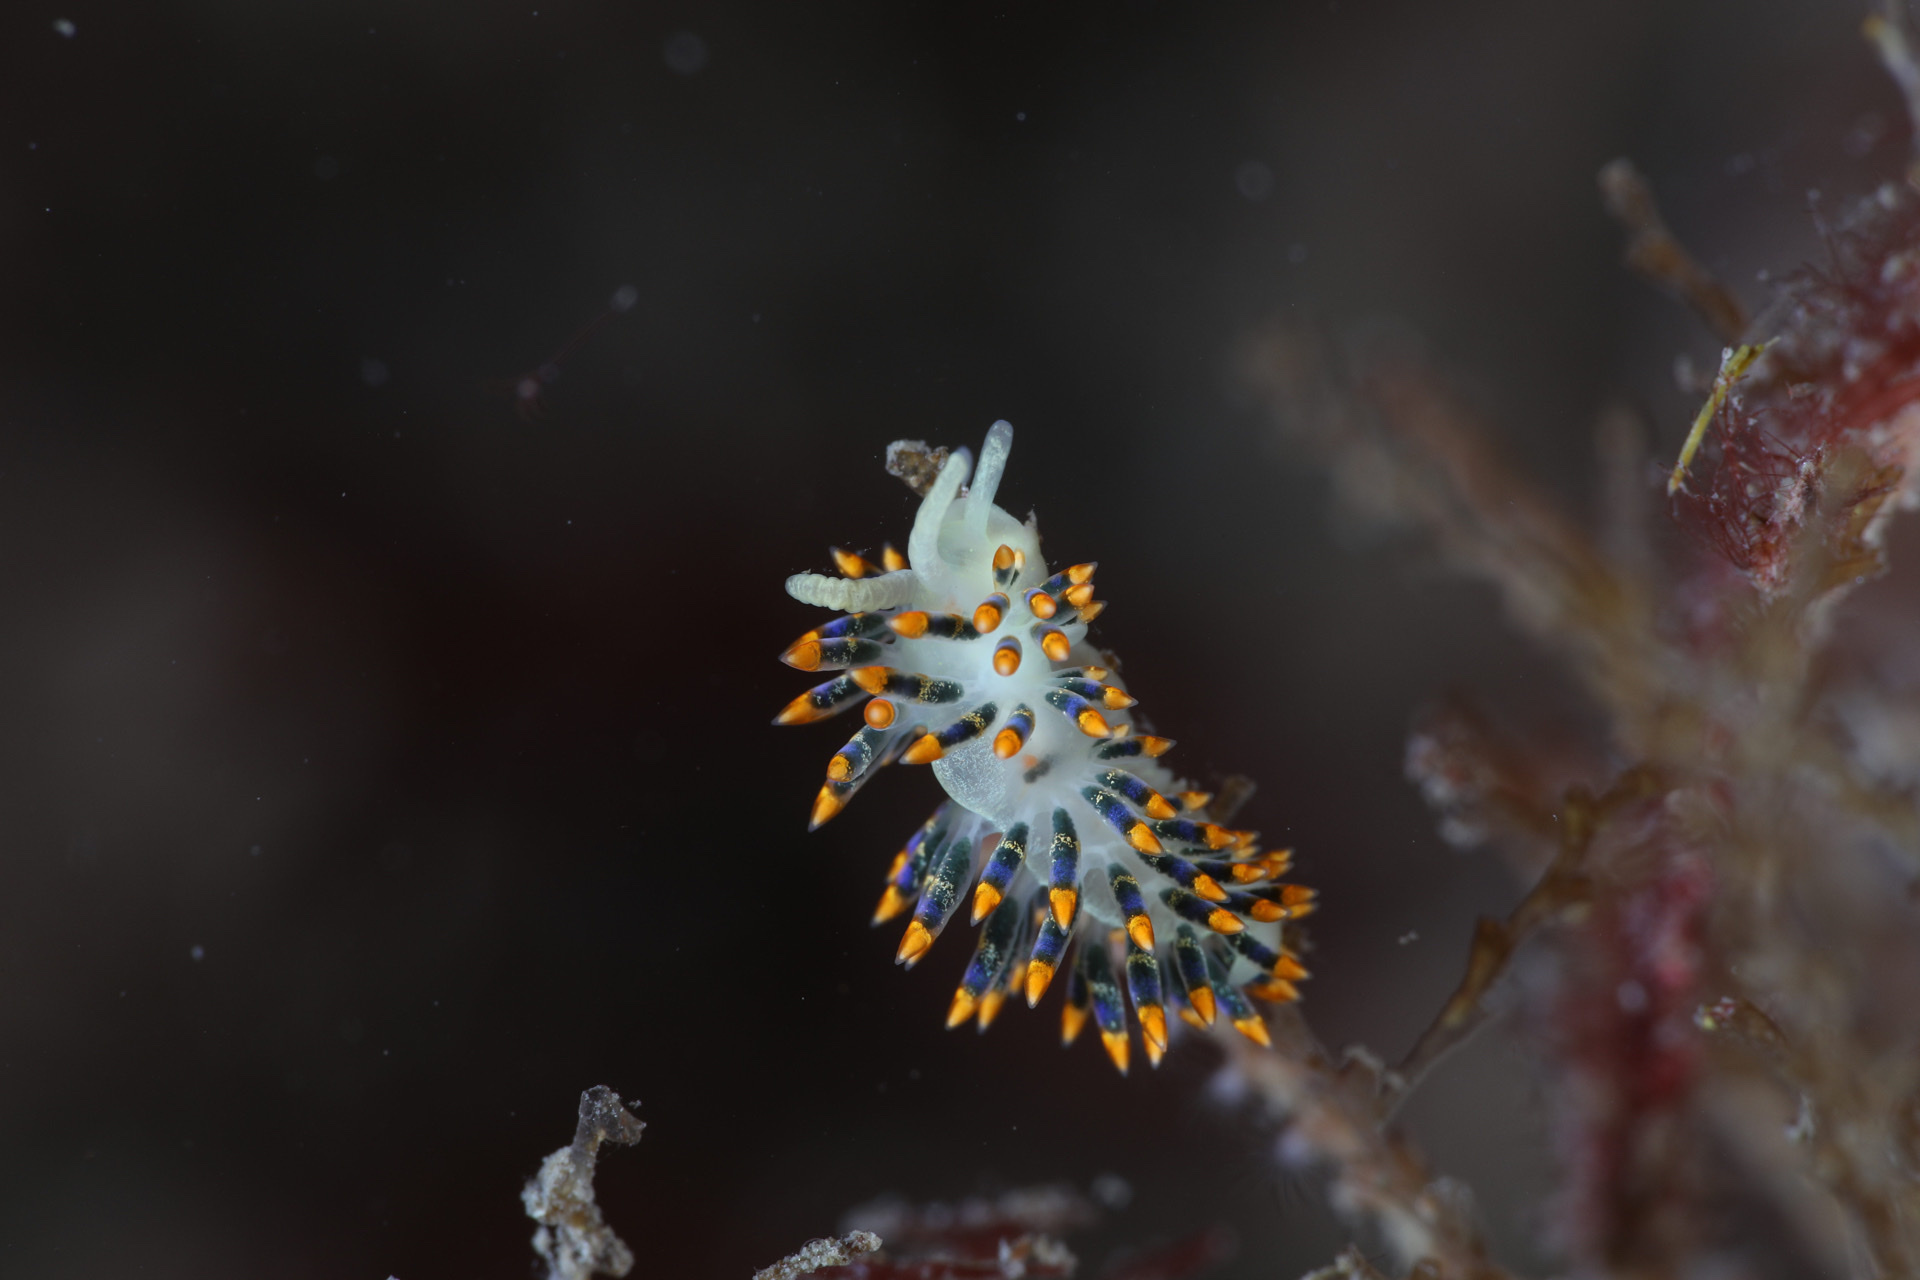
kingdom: Animalia
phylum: Mollusca
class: Gastropoda
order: Nudibranchia
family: Trinchesiidae
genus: Trinchesia
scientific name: Trinchesia caerulea
